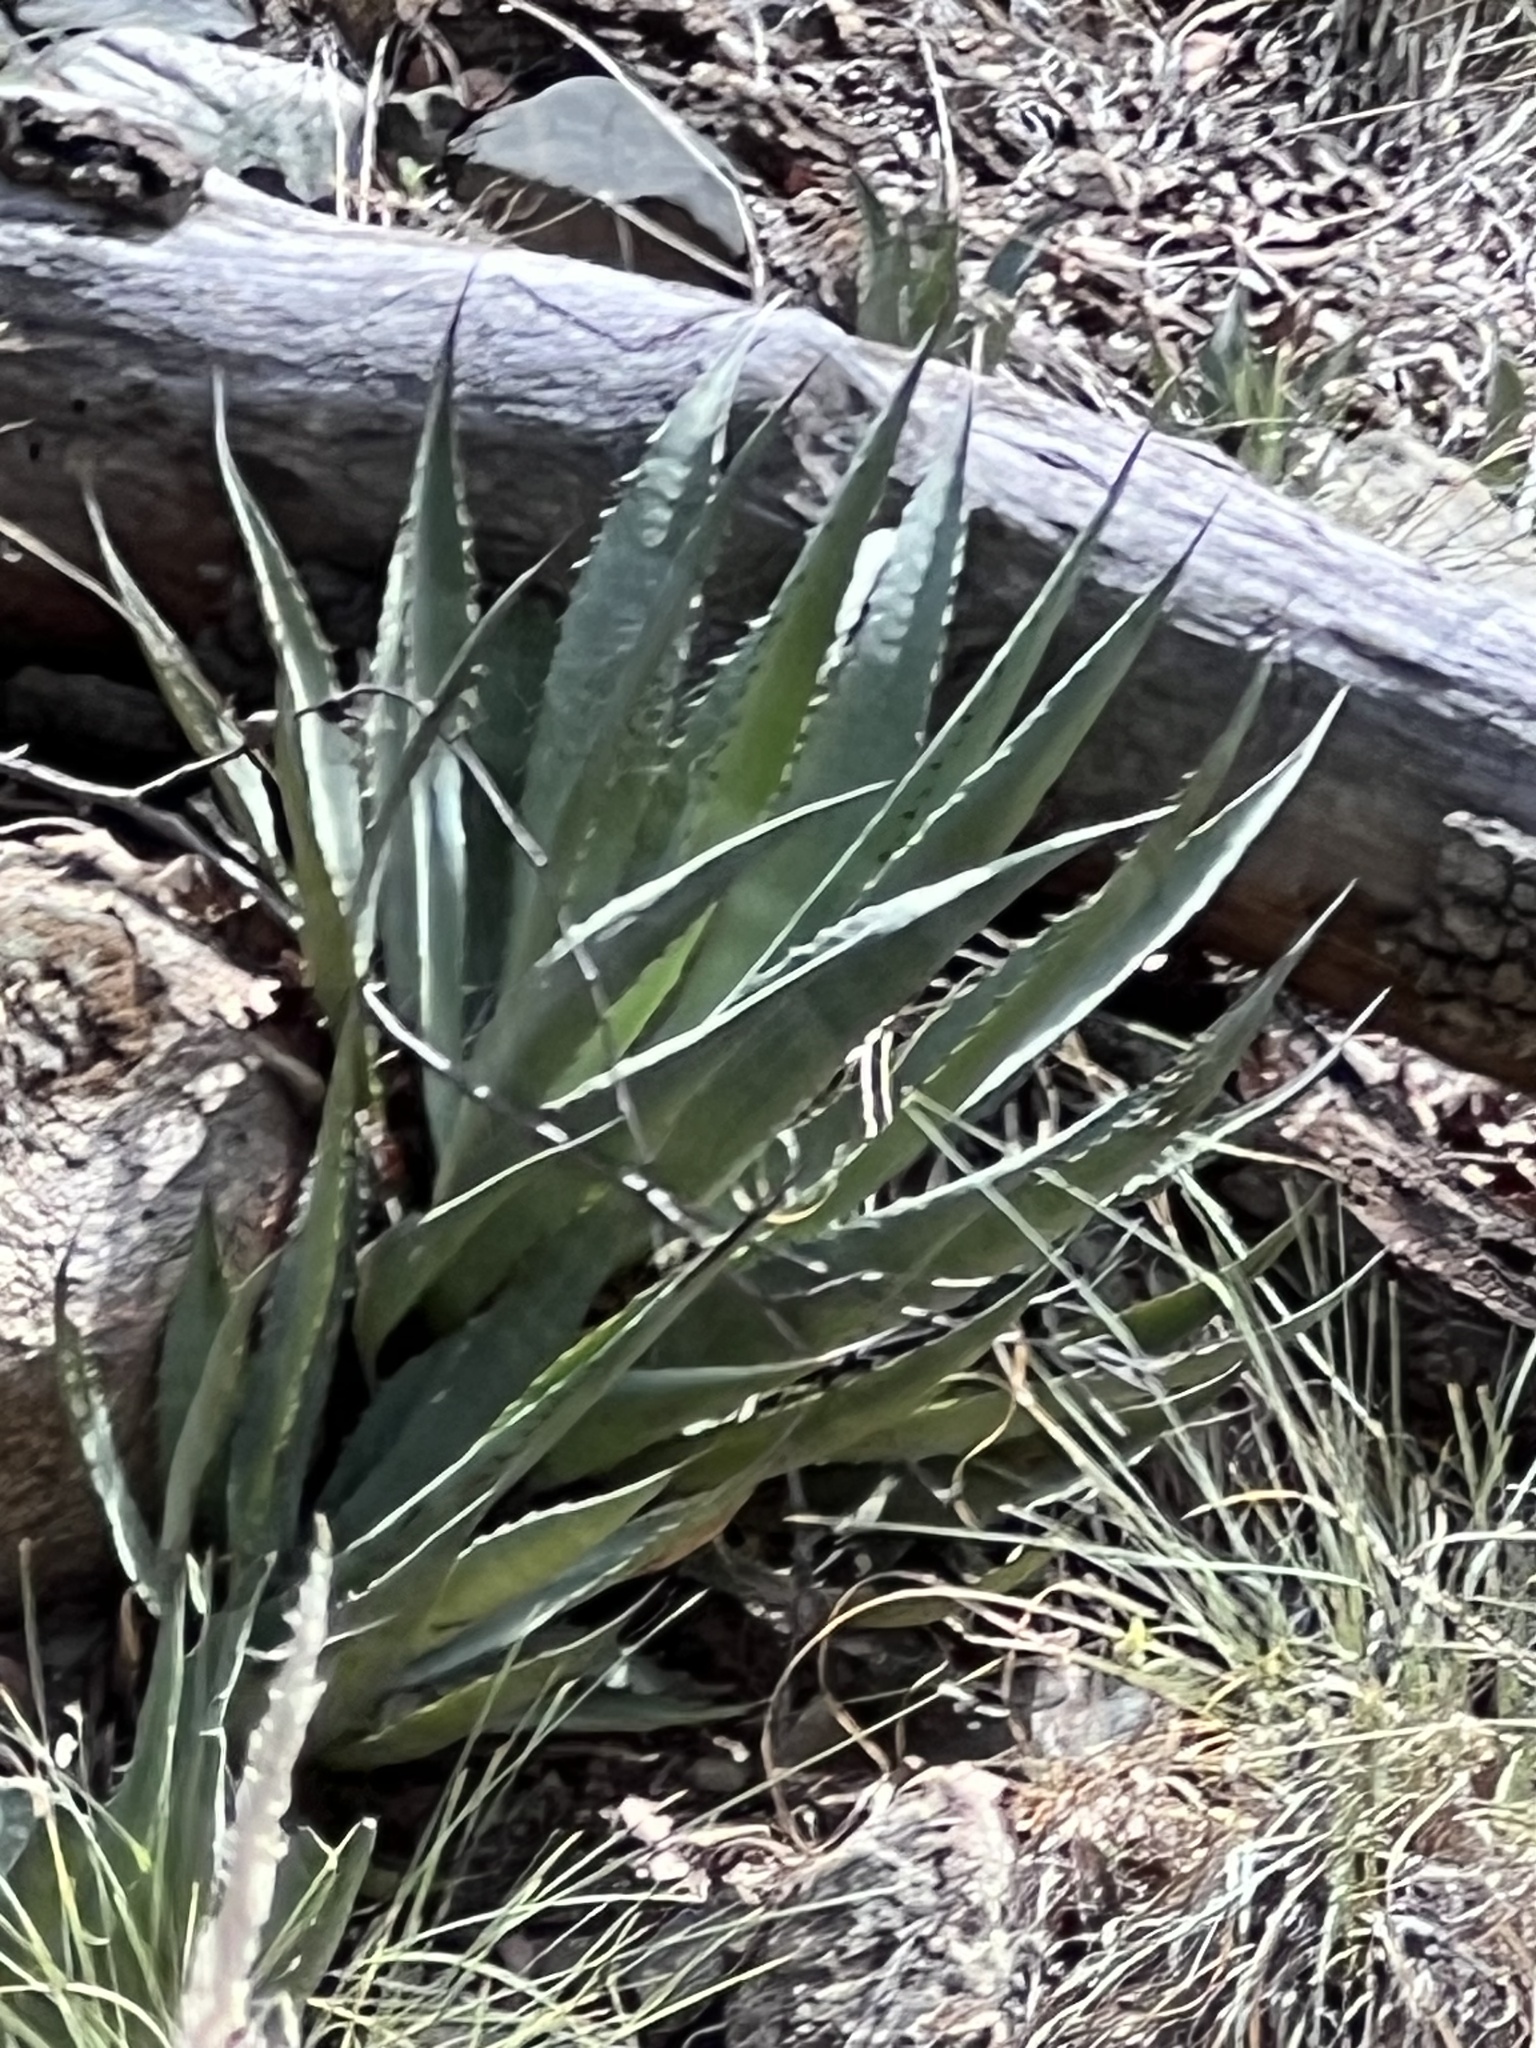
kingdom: Plantae
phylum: Tracheophyta
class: Liliopsida
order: Asparagales
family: Asparagaceae
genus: Agave
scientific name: Agave palmeri
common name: Palmer agave
